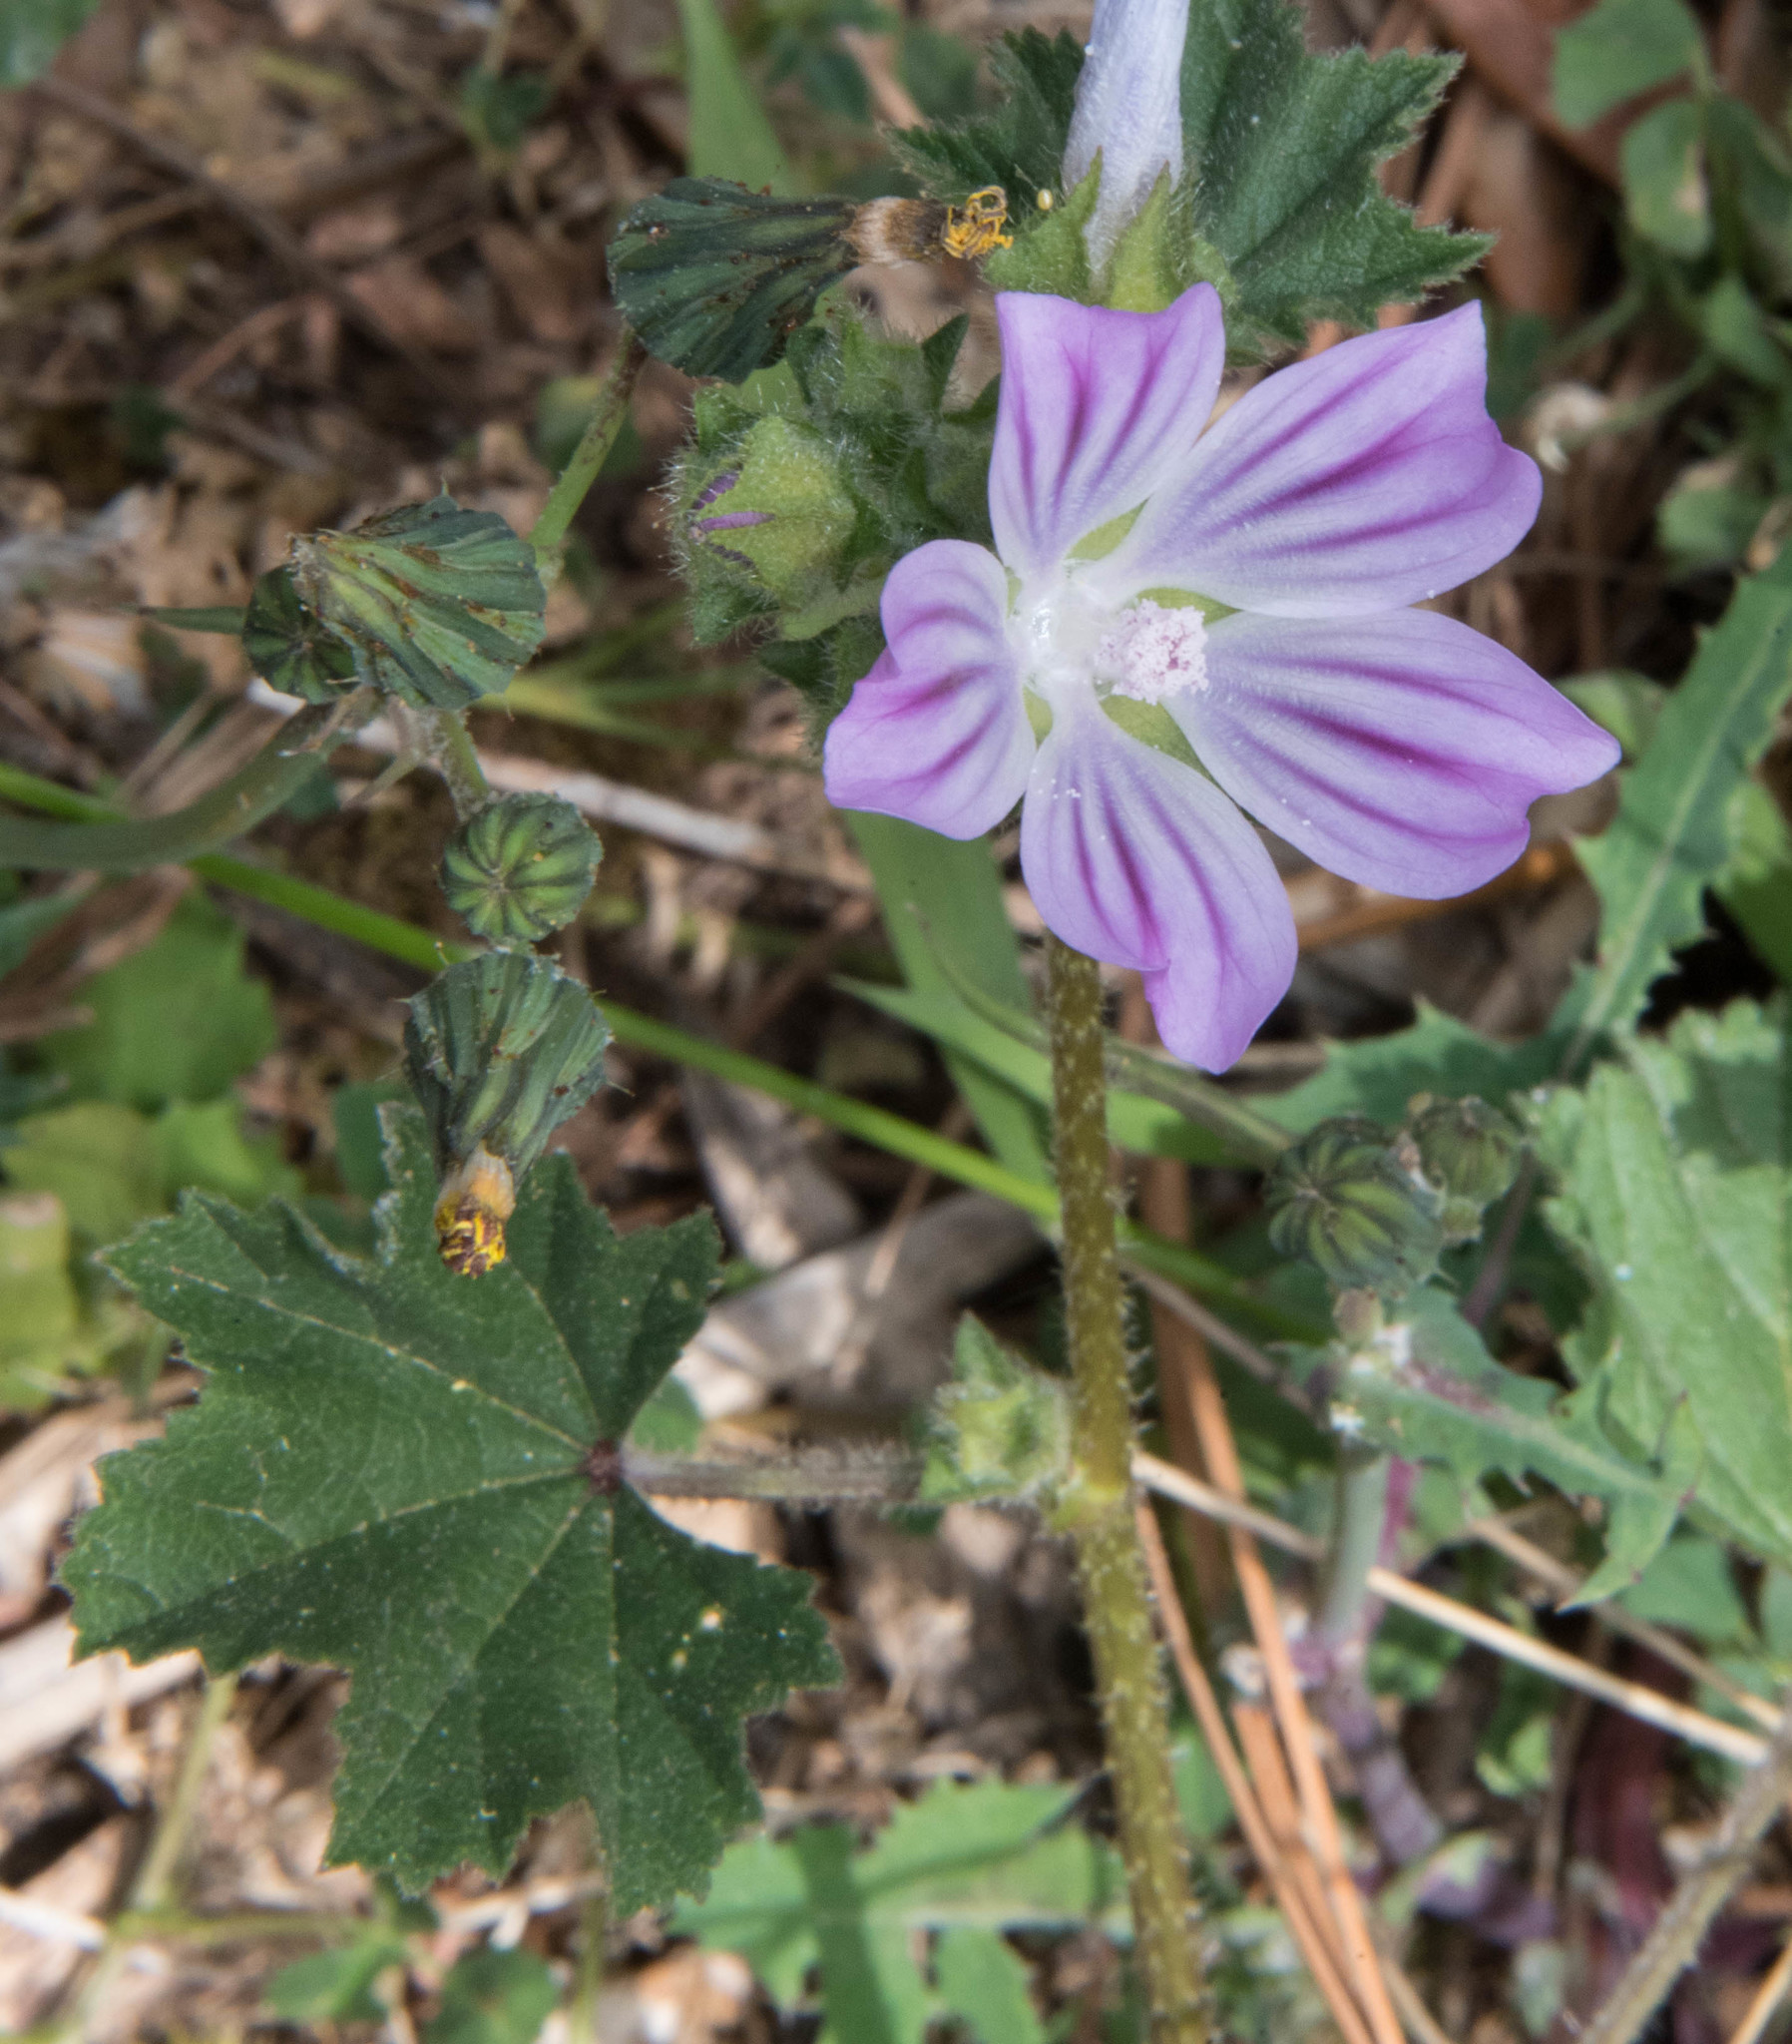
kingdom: Plantae
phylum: Tracheophyta
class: Magnoliopsida
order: Malvales
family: Malvaceae
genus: Malva
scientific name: Malva sylvestris
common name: Common mallow
